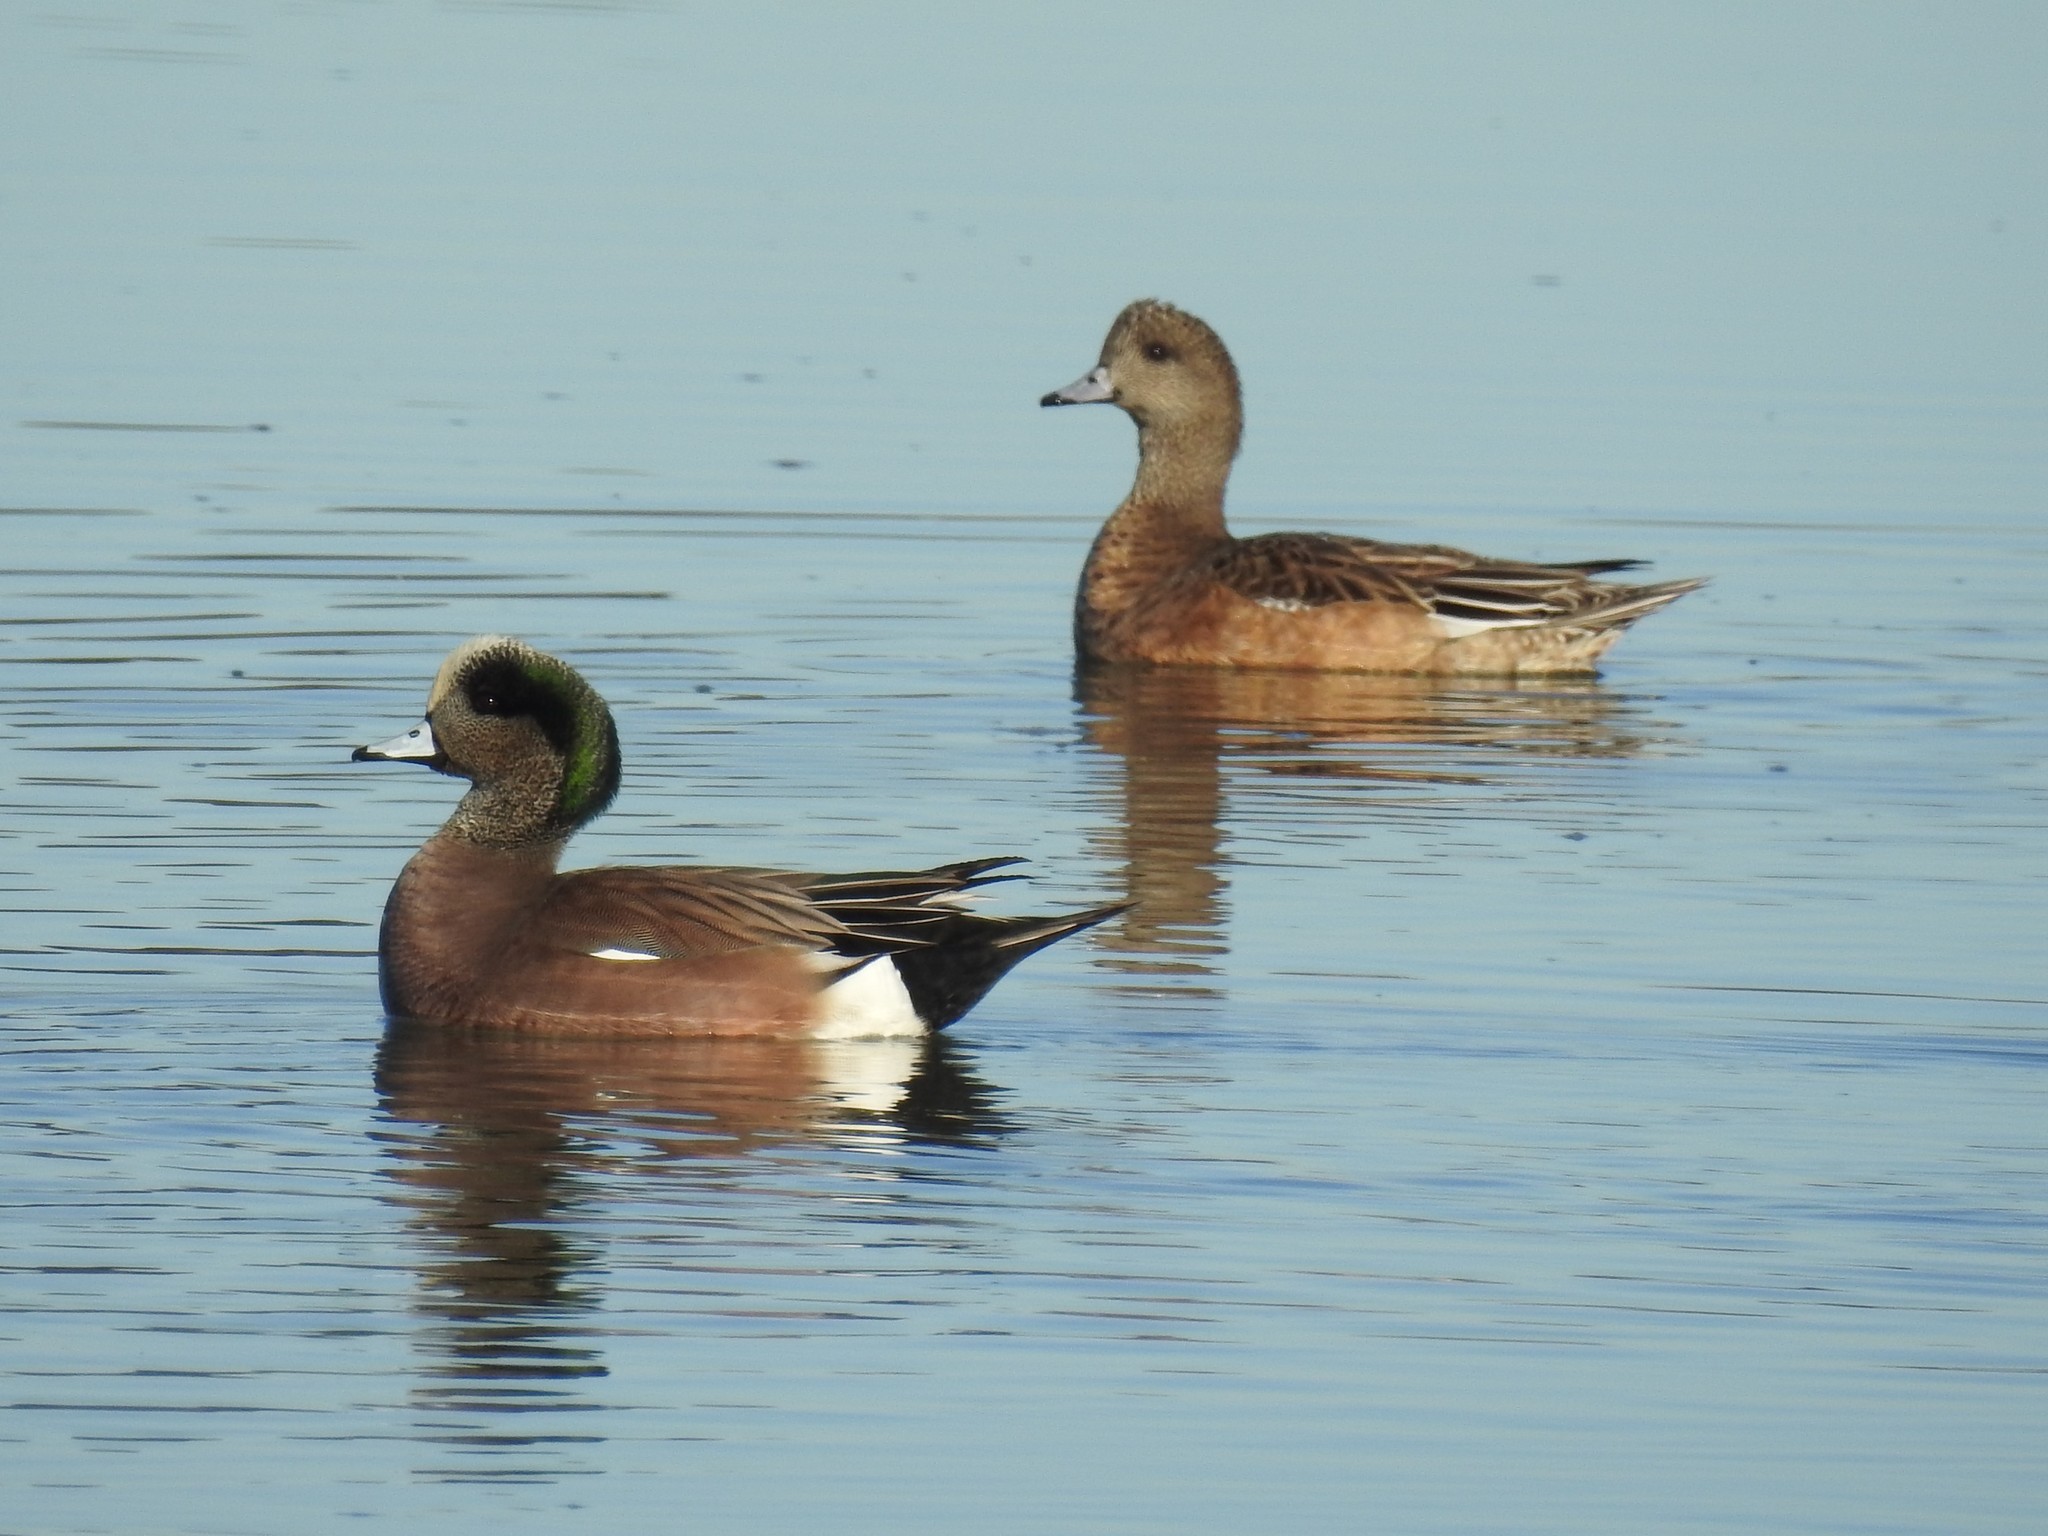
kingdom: Animalia
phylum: Chordata
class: Aves
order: Anseriformes
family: Anatidae
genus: Mareca
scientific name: Mareca americana
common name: American wigeon
